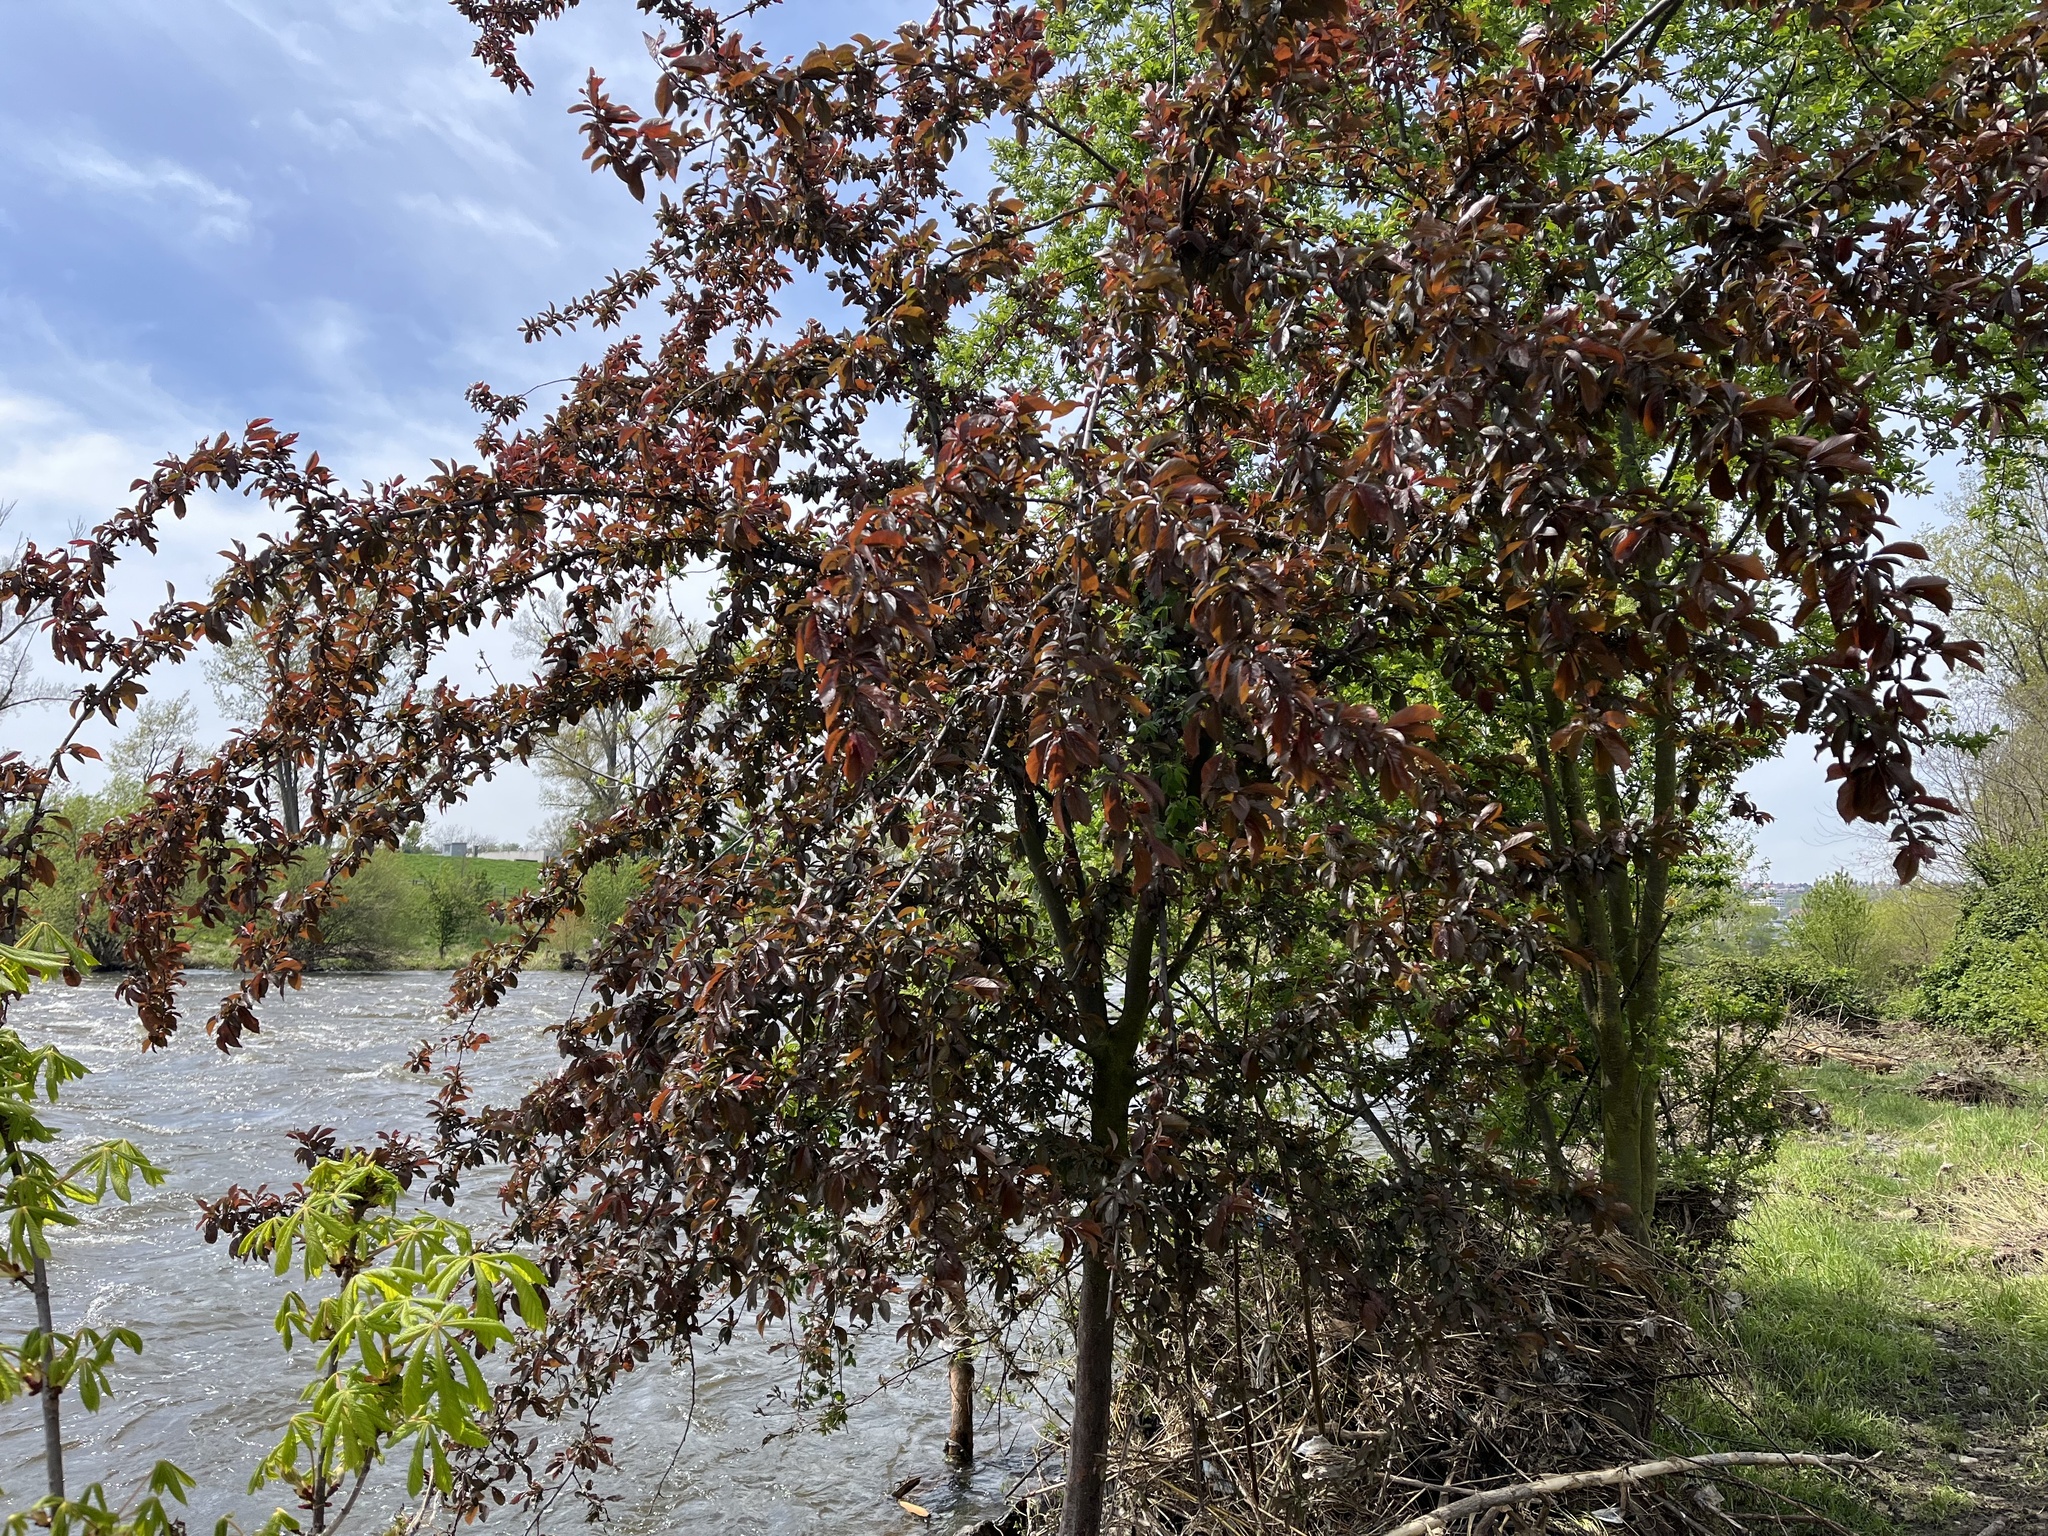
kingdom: Plantae
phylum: Tracheophyta
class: Magnoliopsida
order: Rosales
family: Rosaceae
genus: Prunus
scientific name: Prunus cerasifera
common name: Cherry plum
